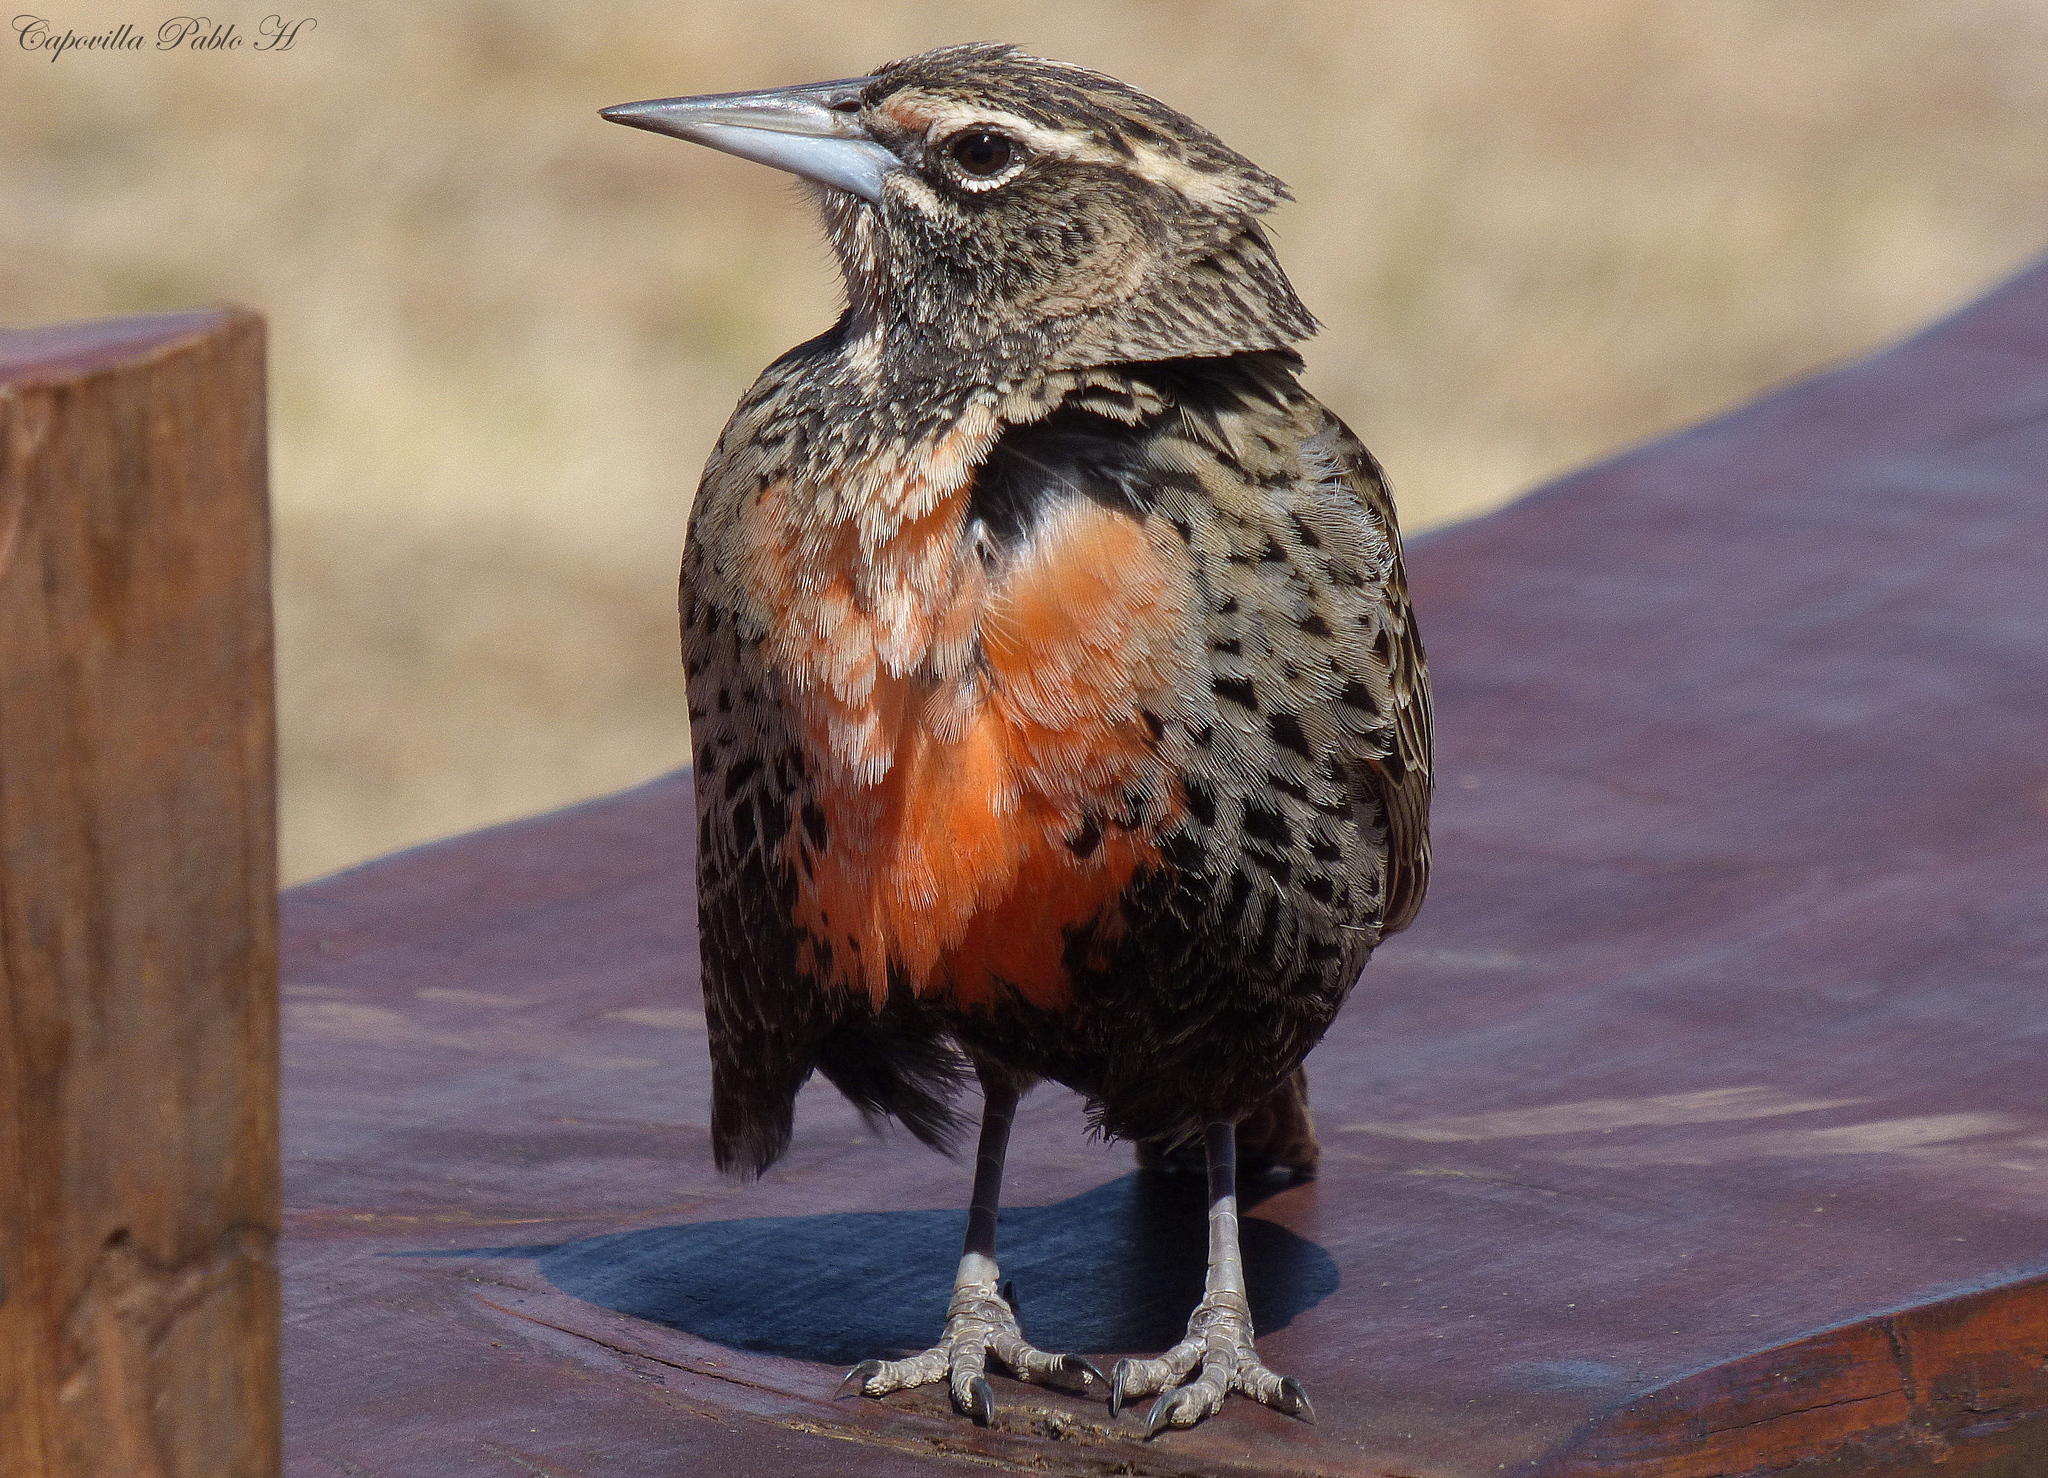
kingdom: Animalia
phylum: Chordata
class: Aves
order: Passeriformes
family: Icteridae
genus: Sturnella
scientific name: Sturnella loyca
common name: Long-tailed meadowlark
